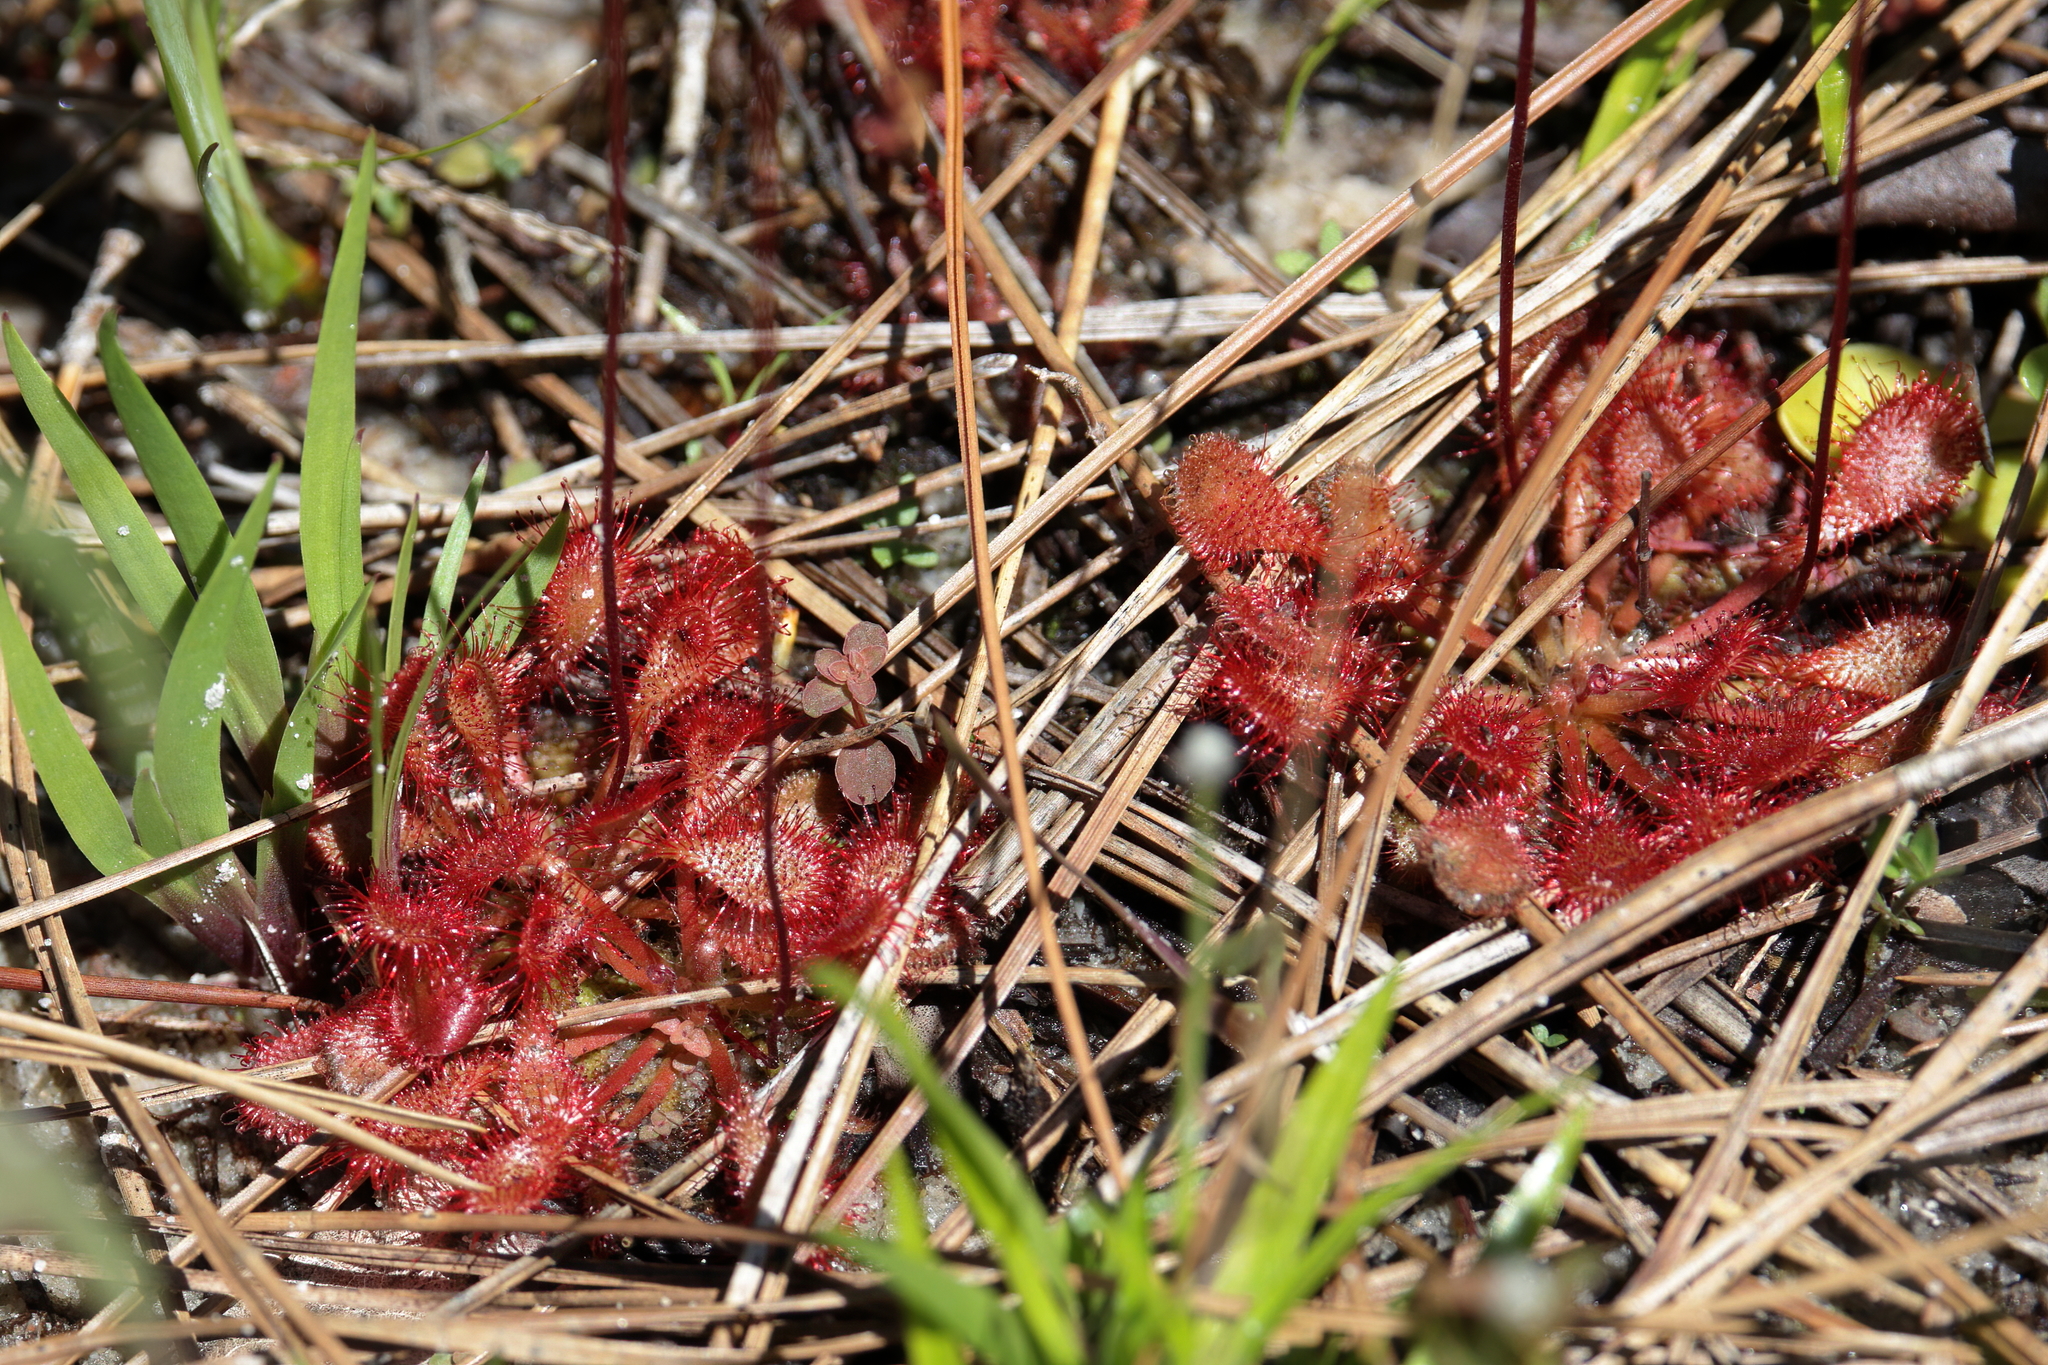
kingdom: Plantae
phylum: Tracheophyta
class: Magnoliopsida
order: Caryophyllales
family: Droseraceae
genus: Drosera
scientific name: Drosera capillaris
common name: Pink sundew
